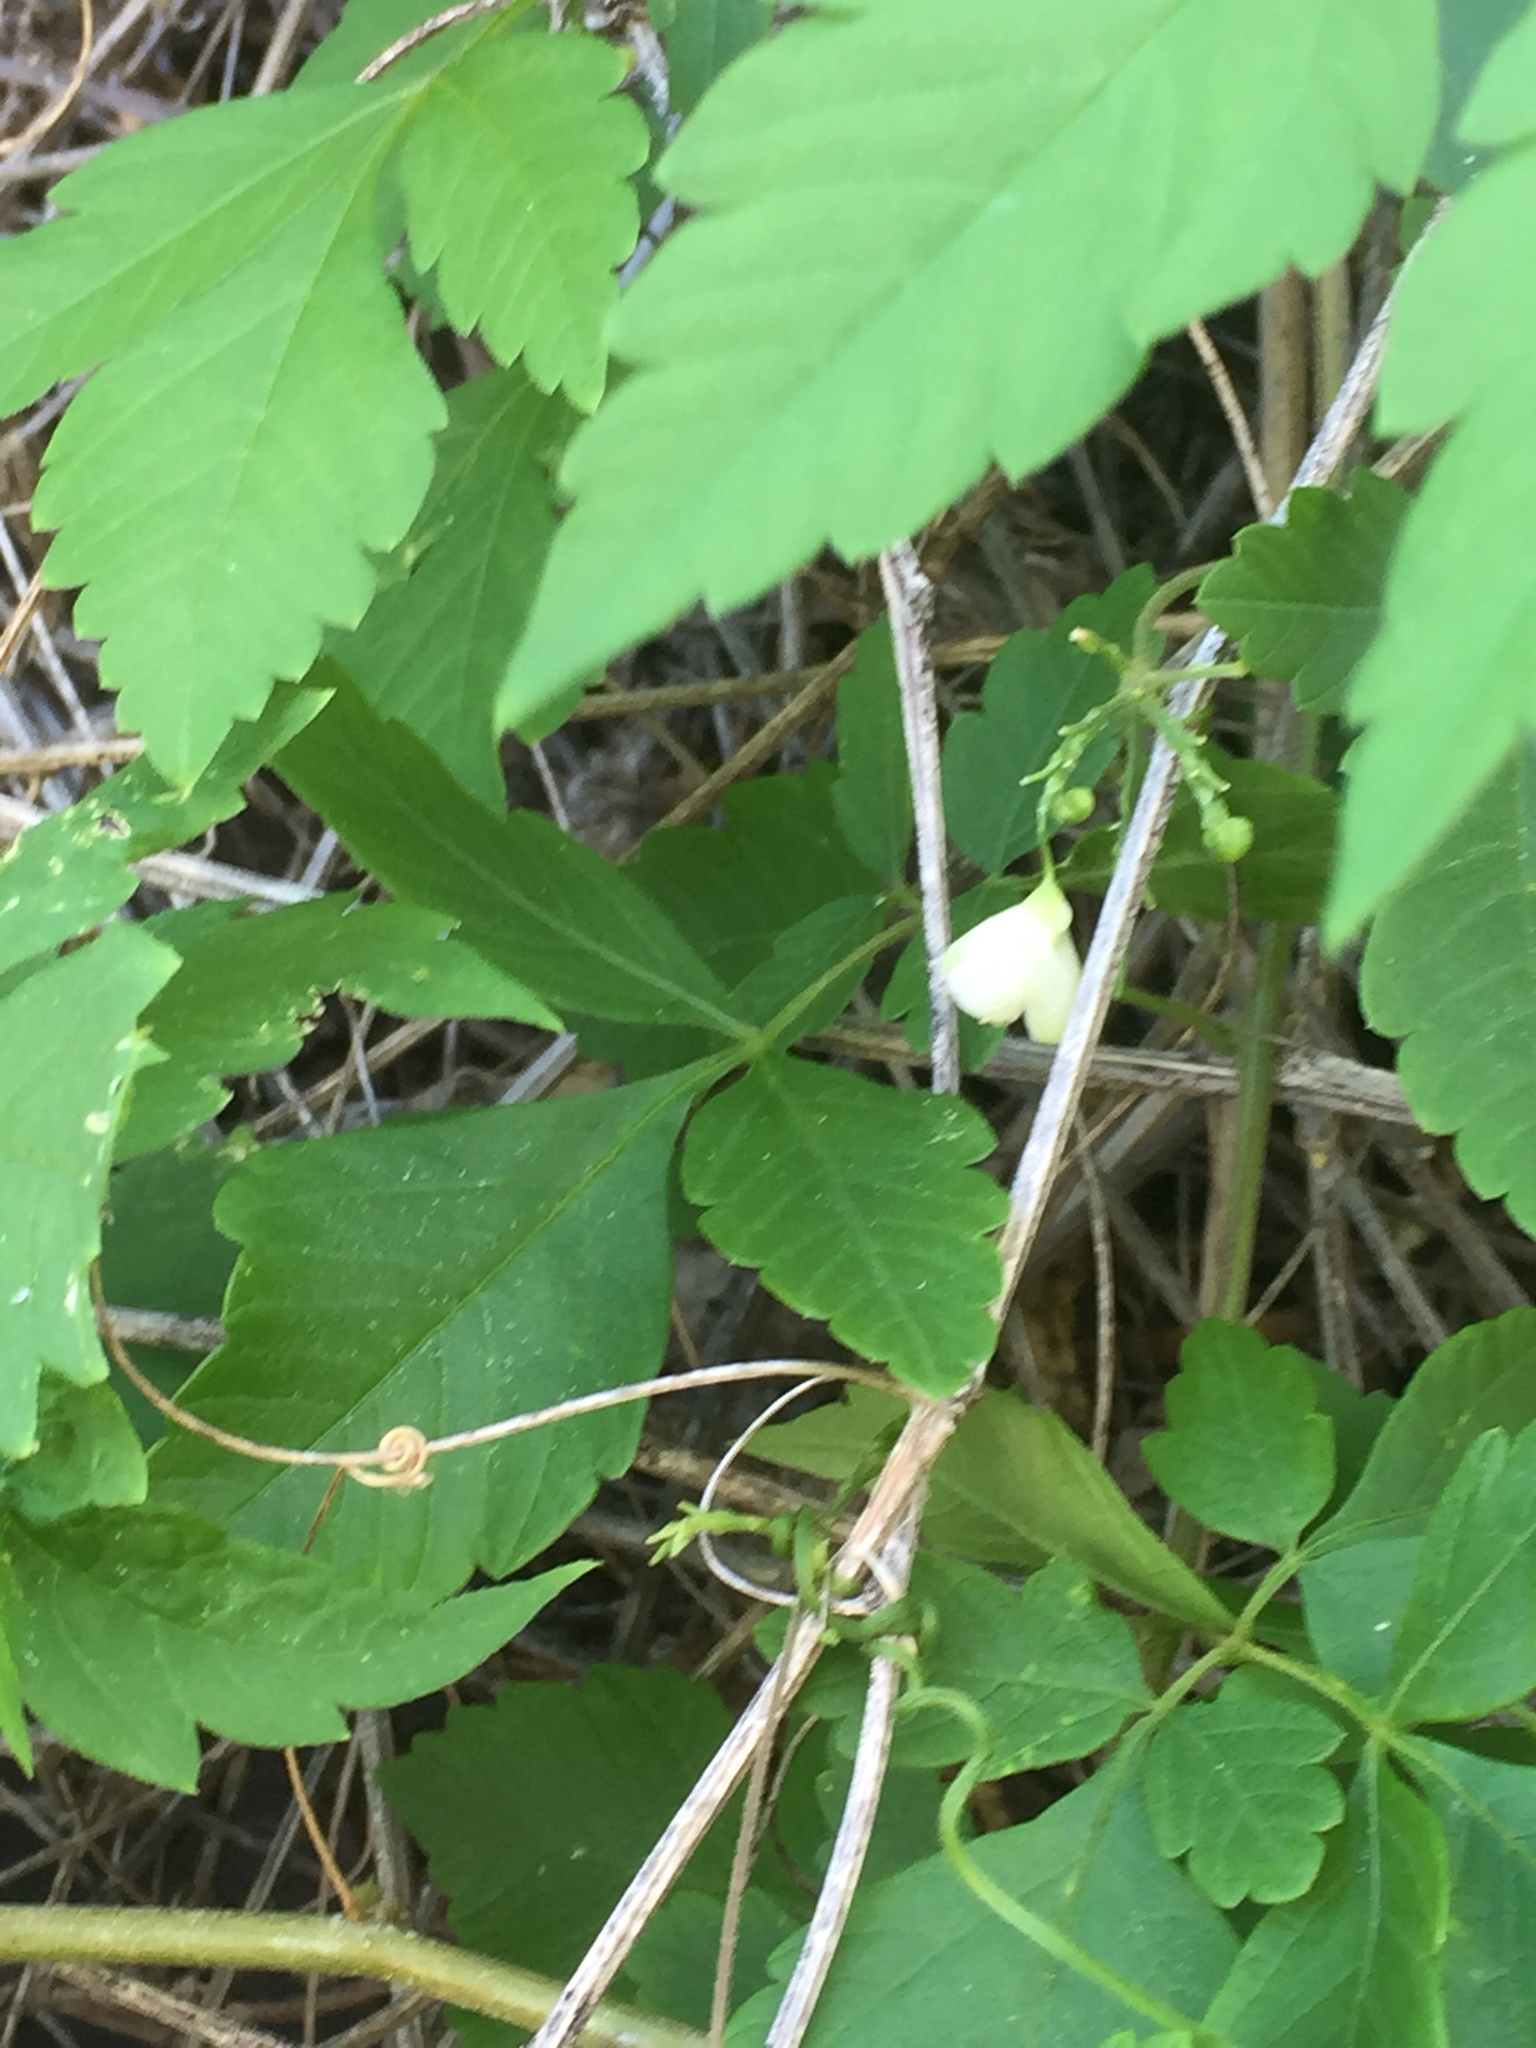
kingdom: Plantae
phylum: Tracheophyta
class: Magnoliopsida
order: Sapindales
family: Sapindaceae
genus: Cardiospermum
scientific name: Cardiospermum grandiflorum
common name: Balloon vine
